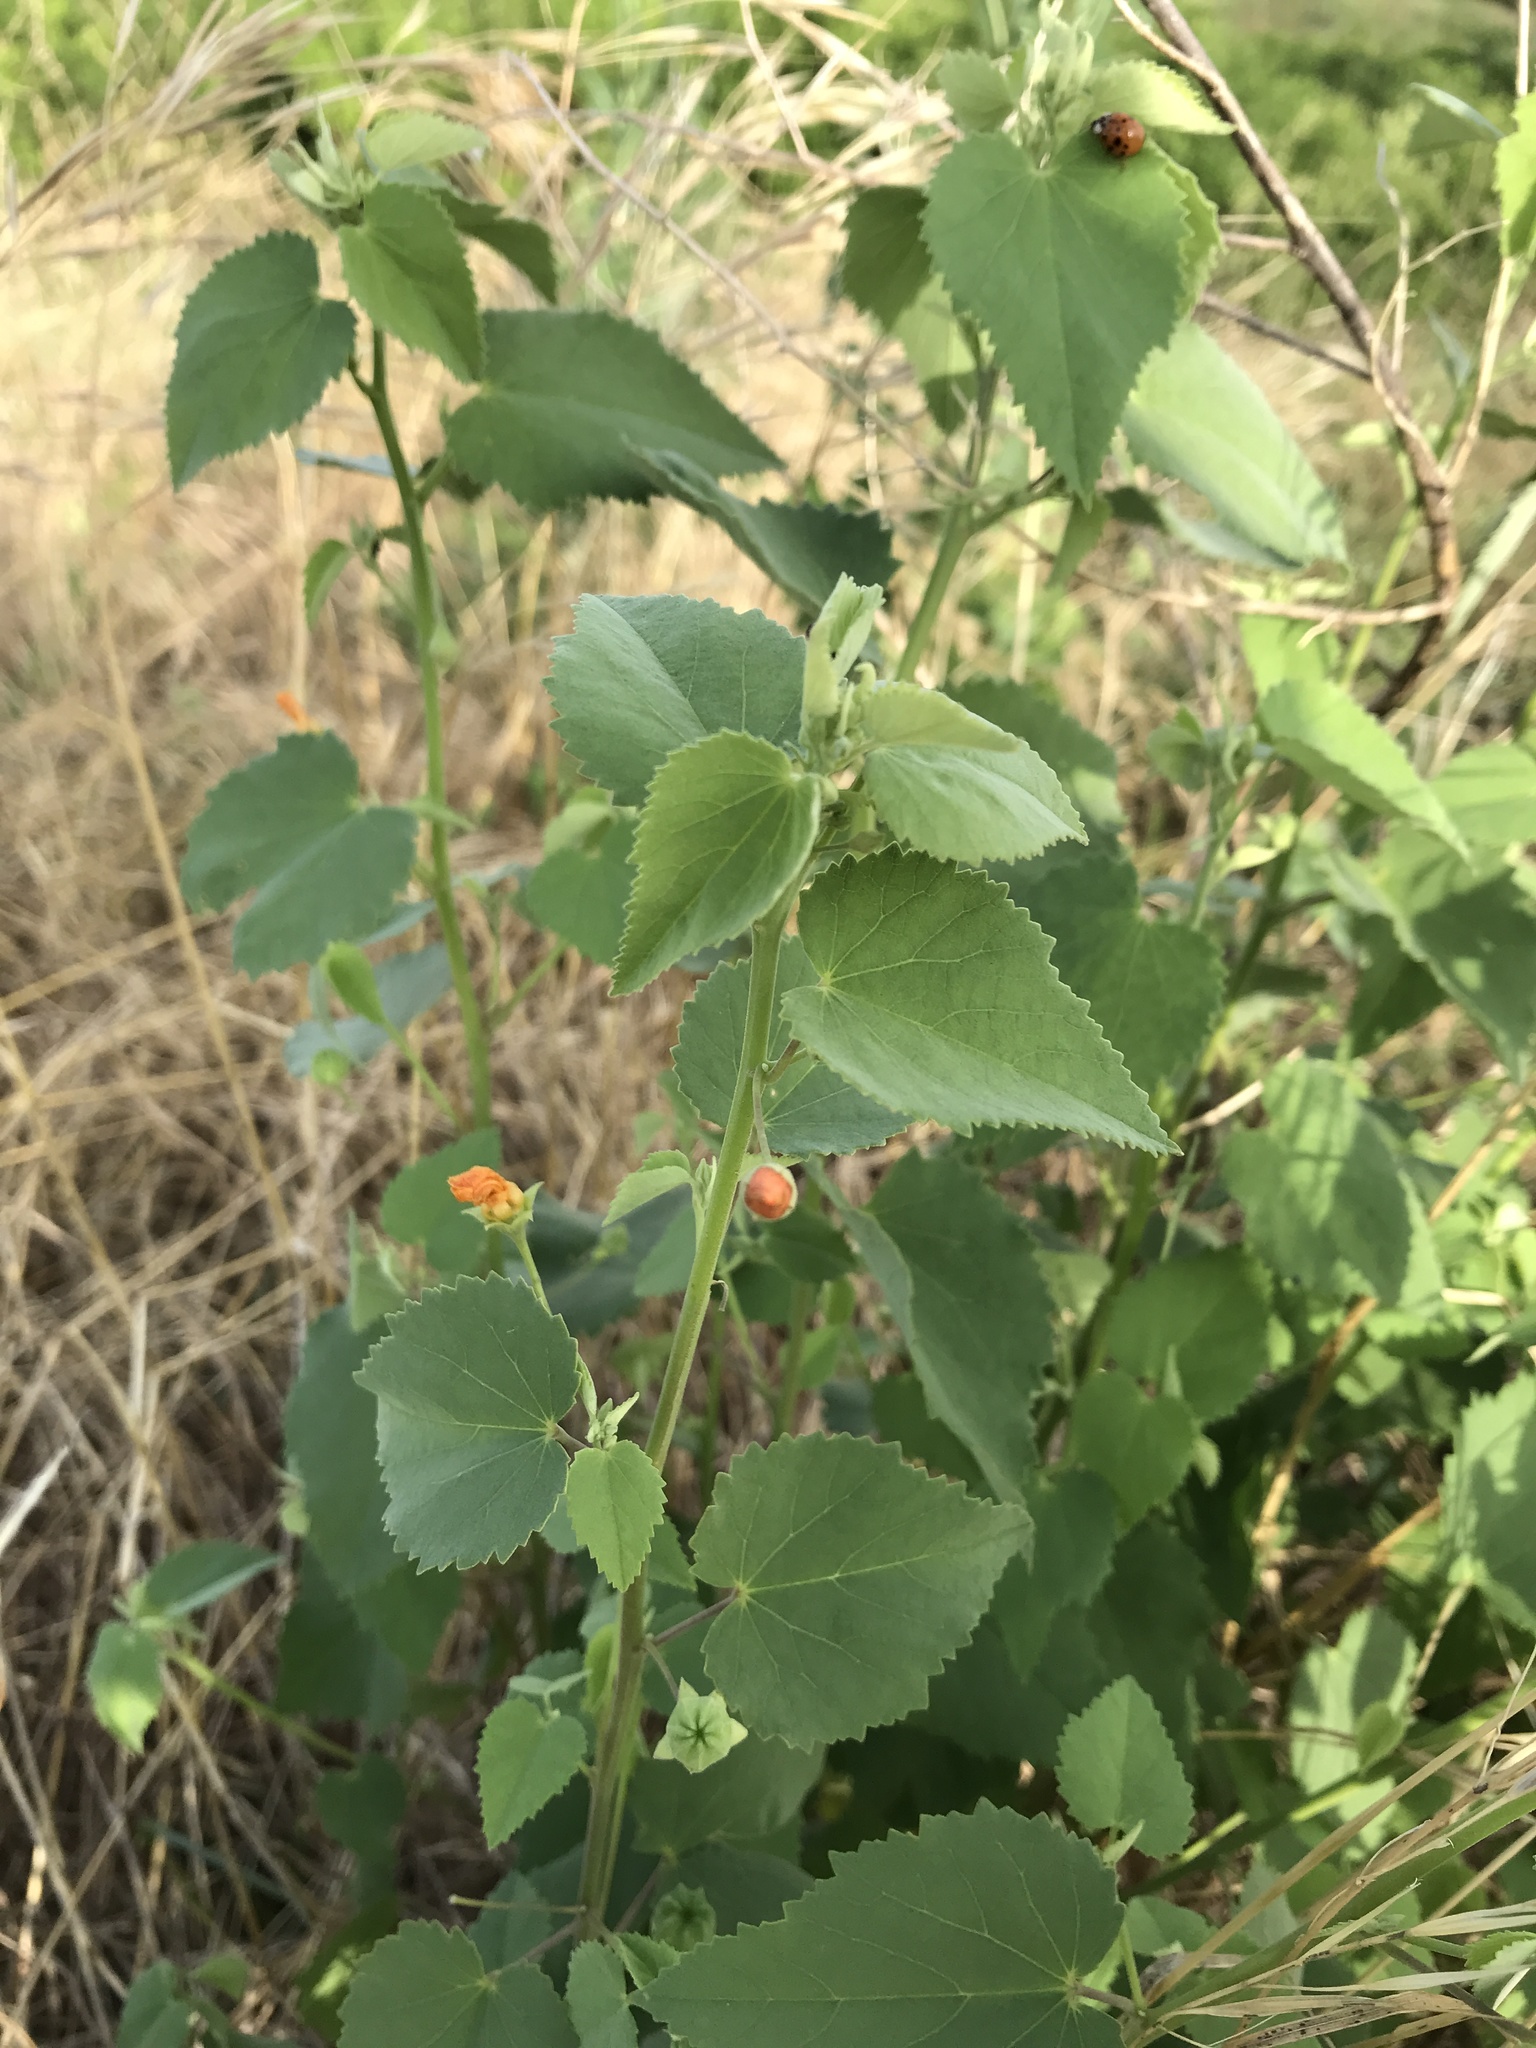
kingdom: Plantae
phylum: Tracheophyta
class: Magnoliopsida
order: Malvales
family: Malvaceae
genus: Abutilon
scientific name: Abutilon fruticosum
